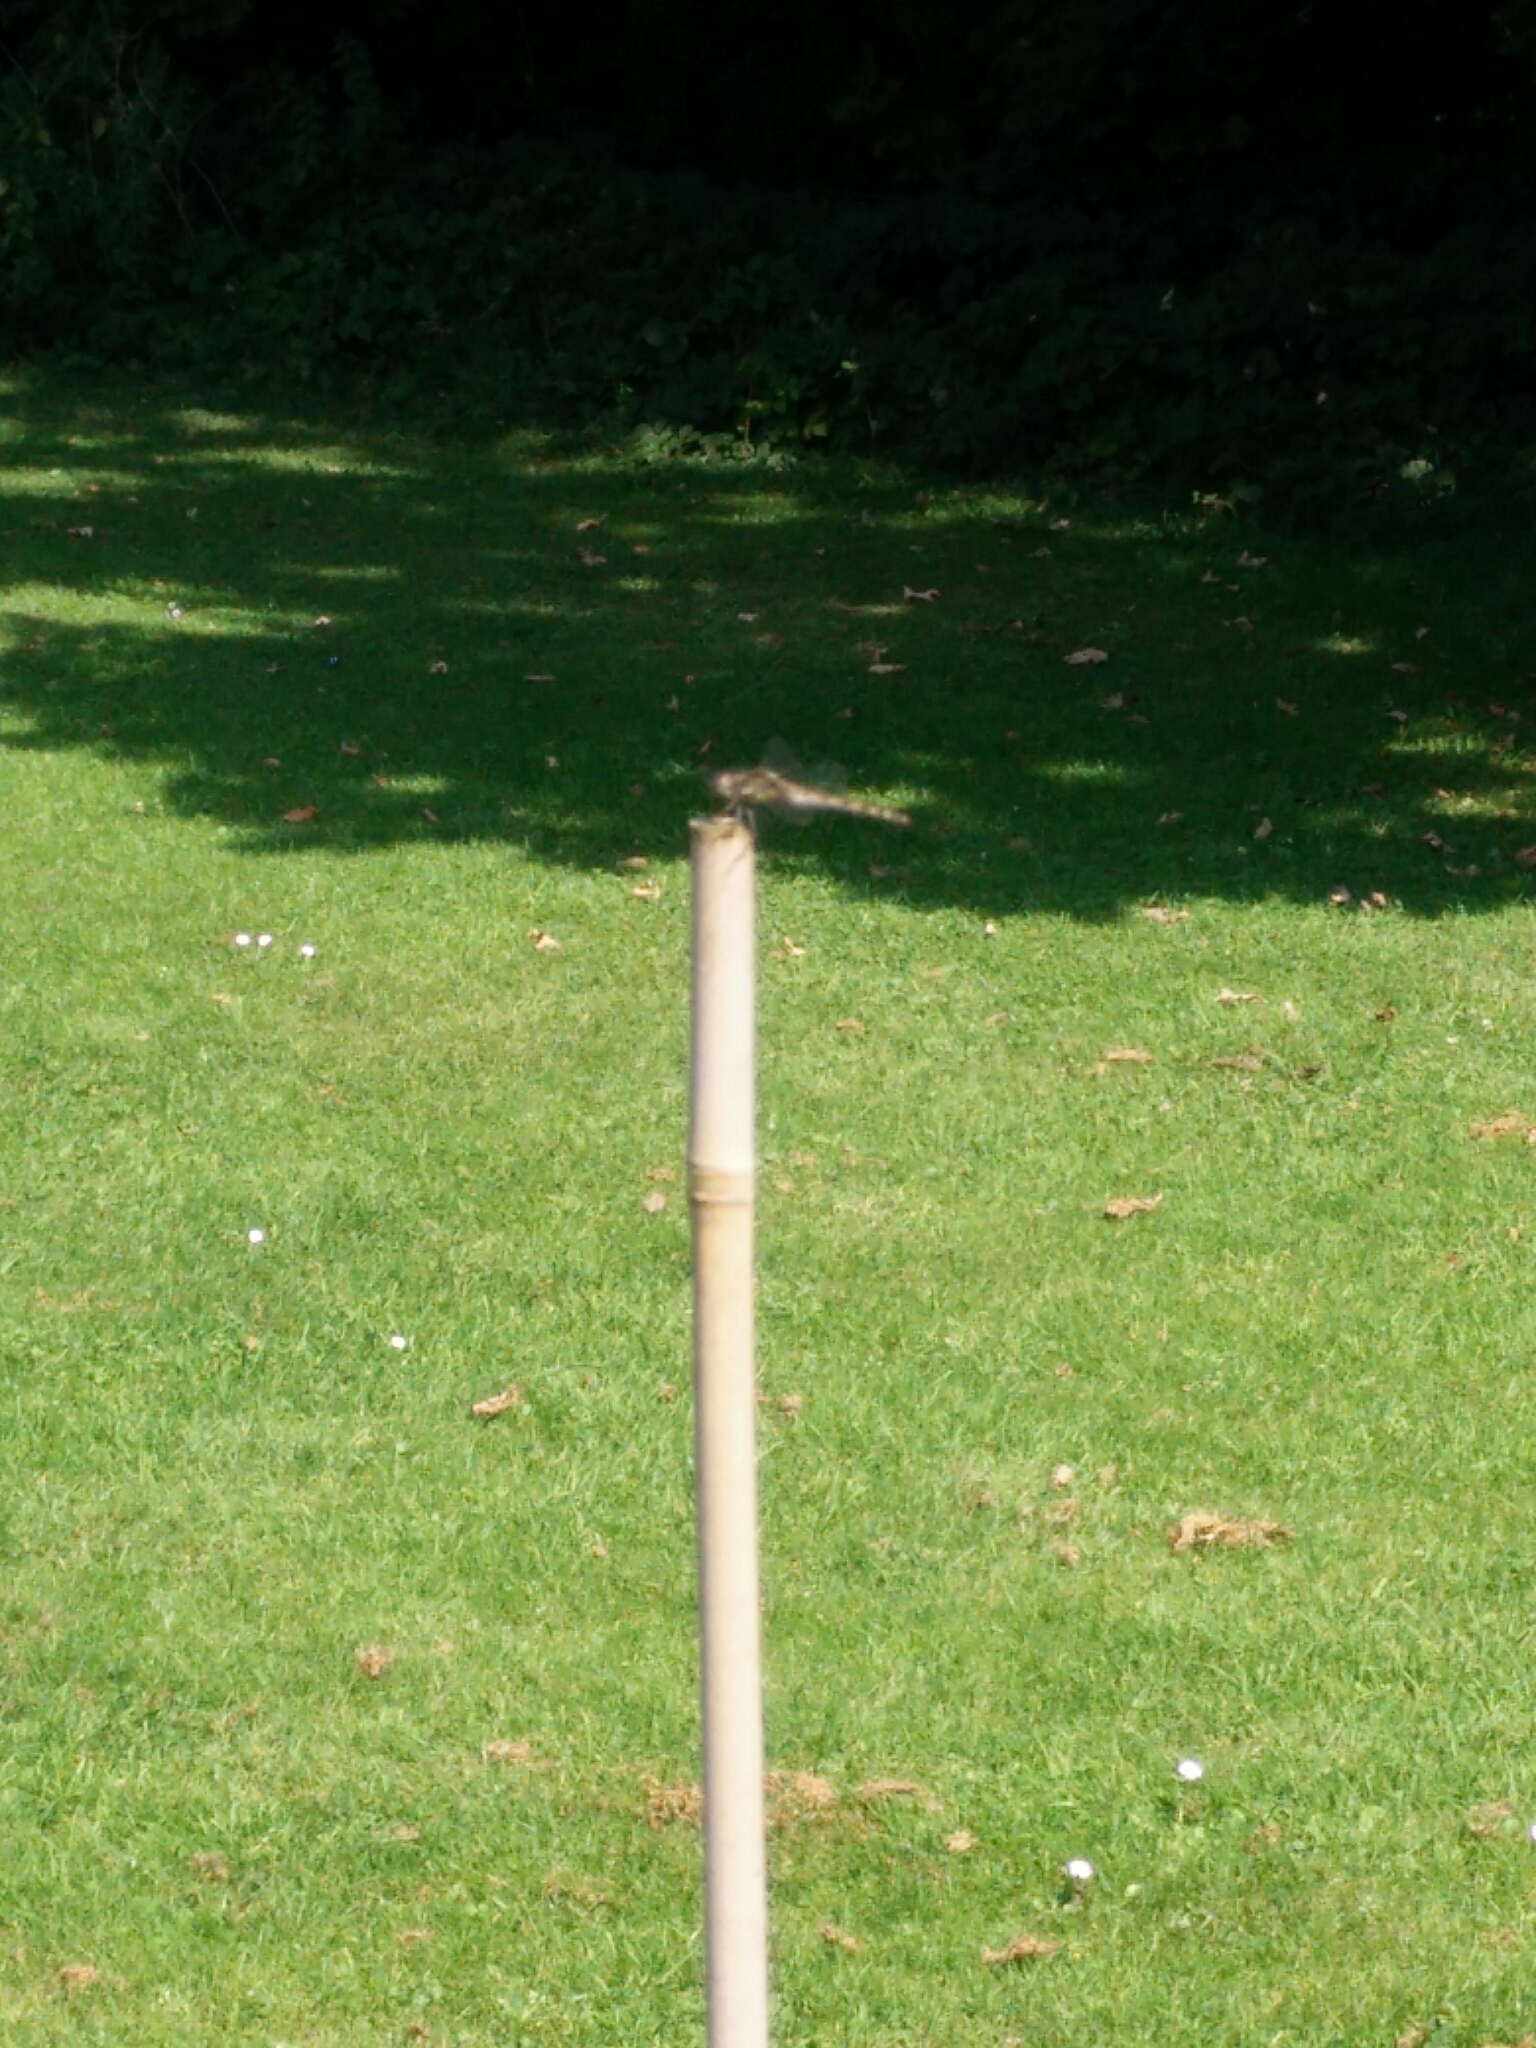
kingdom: Animalia
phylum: Arthropoda
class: Insecta
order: Odonata
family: Libellulidae
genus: Sympetrum
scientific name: Sympetrum striolatum
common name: Common darter
